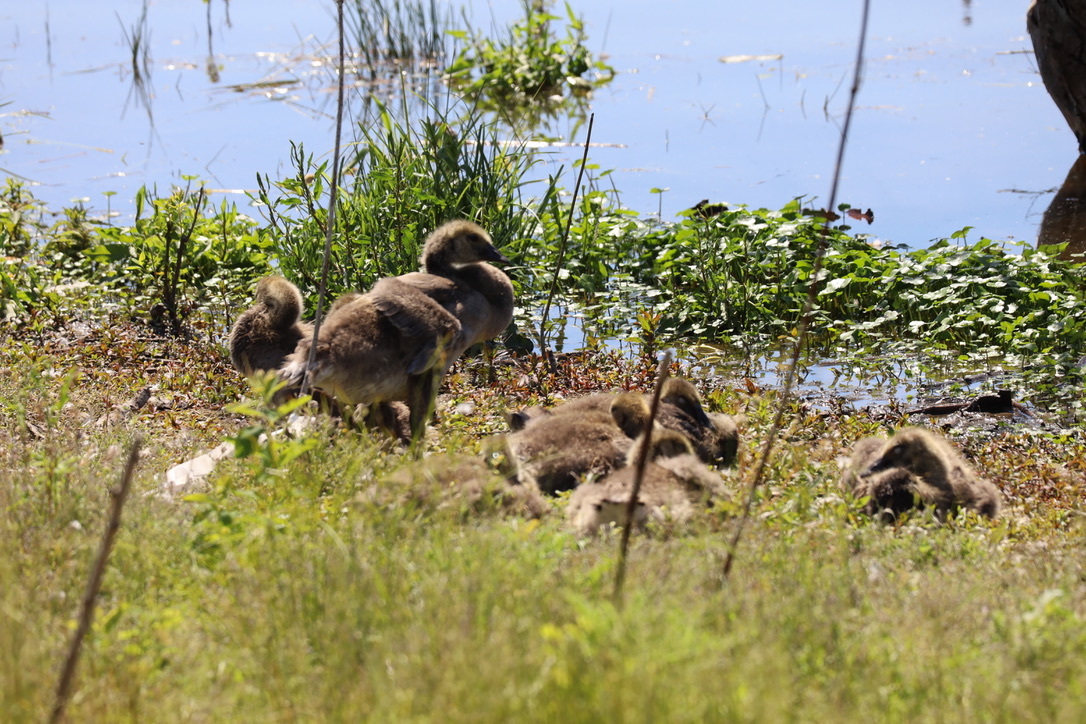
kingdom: Animalia
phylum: Chordata
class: Aves
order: Anseriformes
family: Anatidae
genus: Branta
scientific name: Branta canadensis
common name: Canada goose
